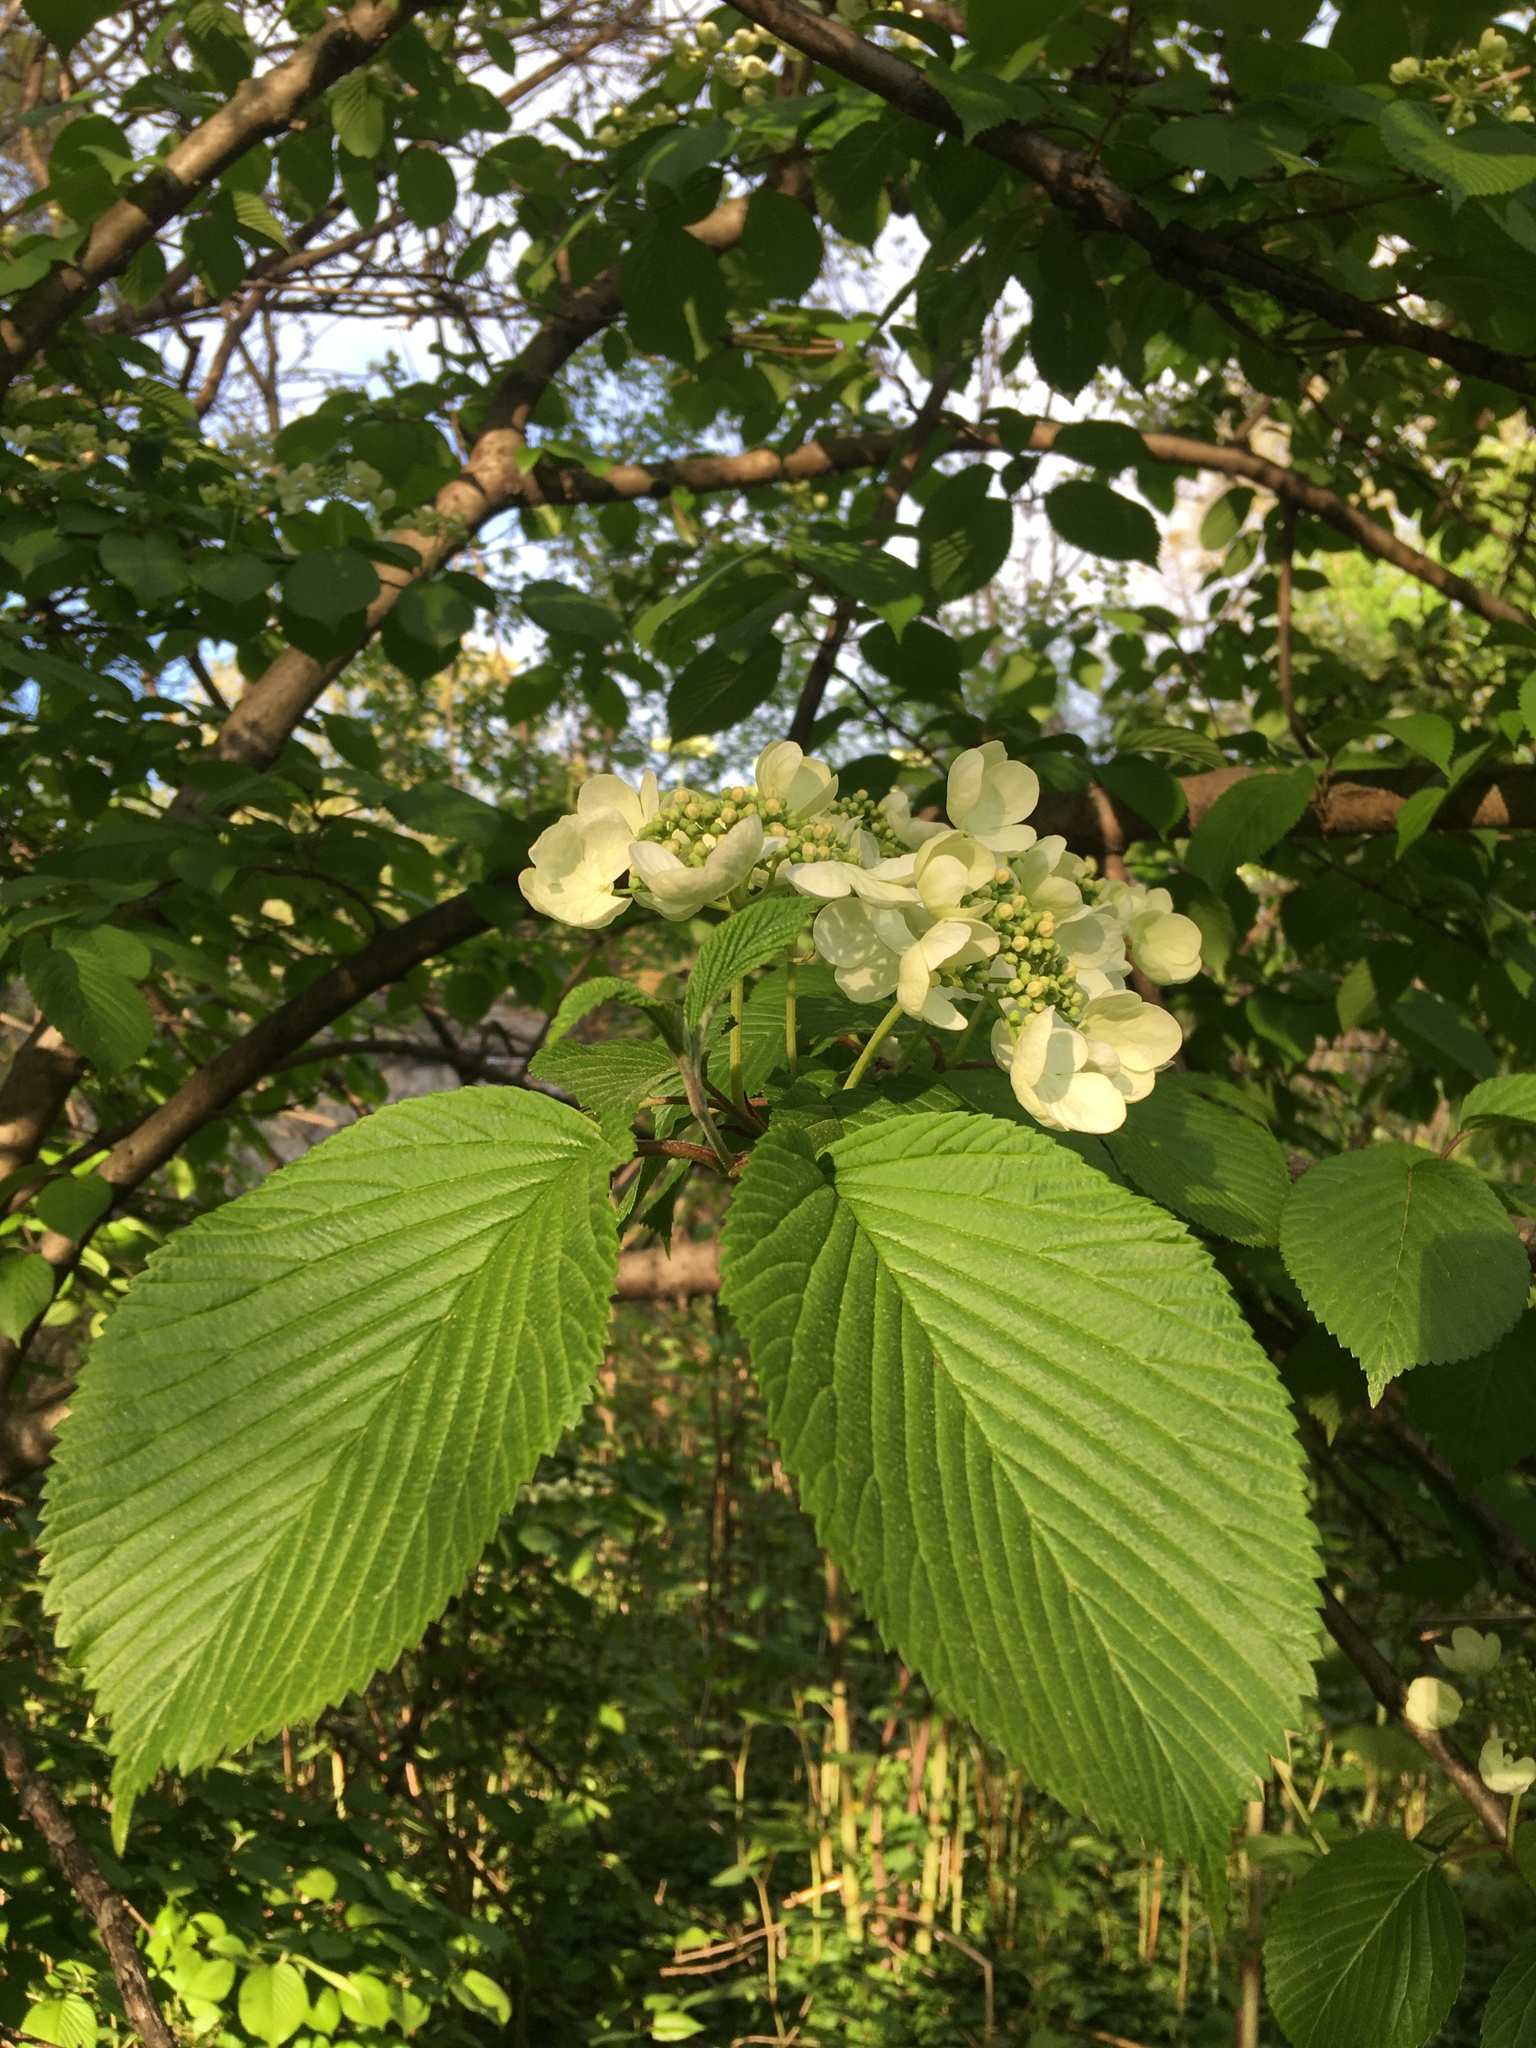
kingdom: Plantae
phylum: Tracheophyta
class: Magnoliopsida
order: Dipsacales
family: Viburnaceae
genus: Viburnum
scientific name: Viburnum plicatum
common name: Japanese snowball
